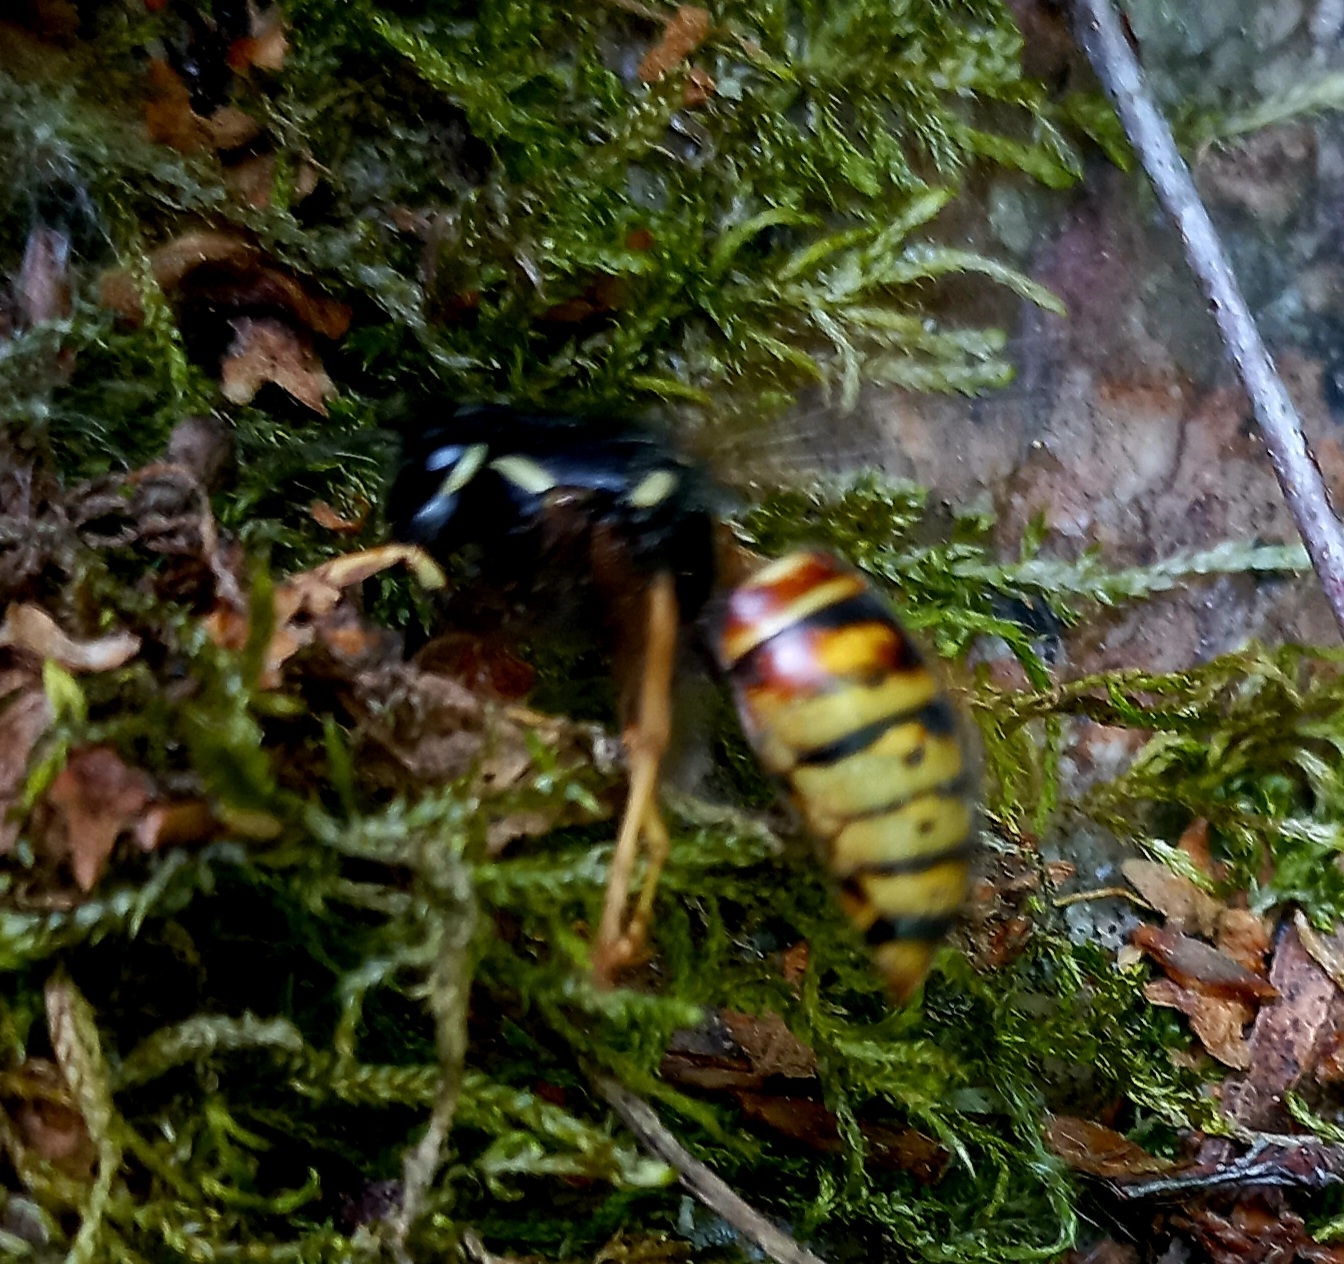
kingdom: Animalia
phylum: Arthropoda
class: Insecta
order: Hymenoptera
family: Vespidae
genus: Vespula
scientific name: Vespula rufa
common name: Red wasp
